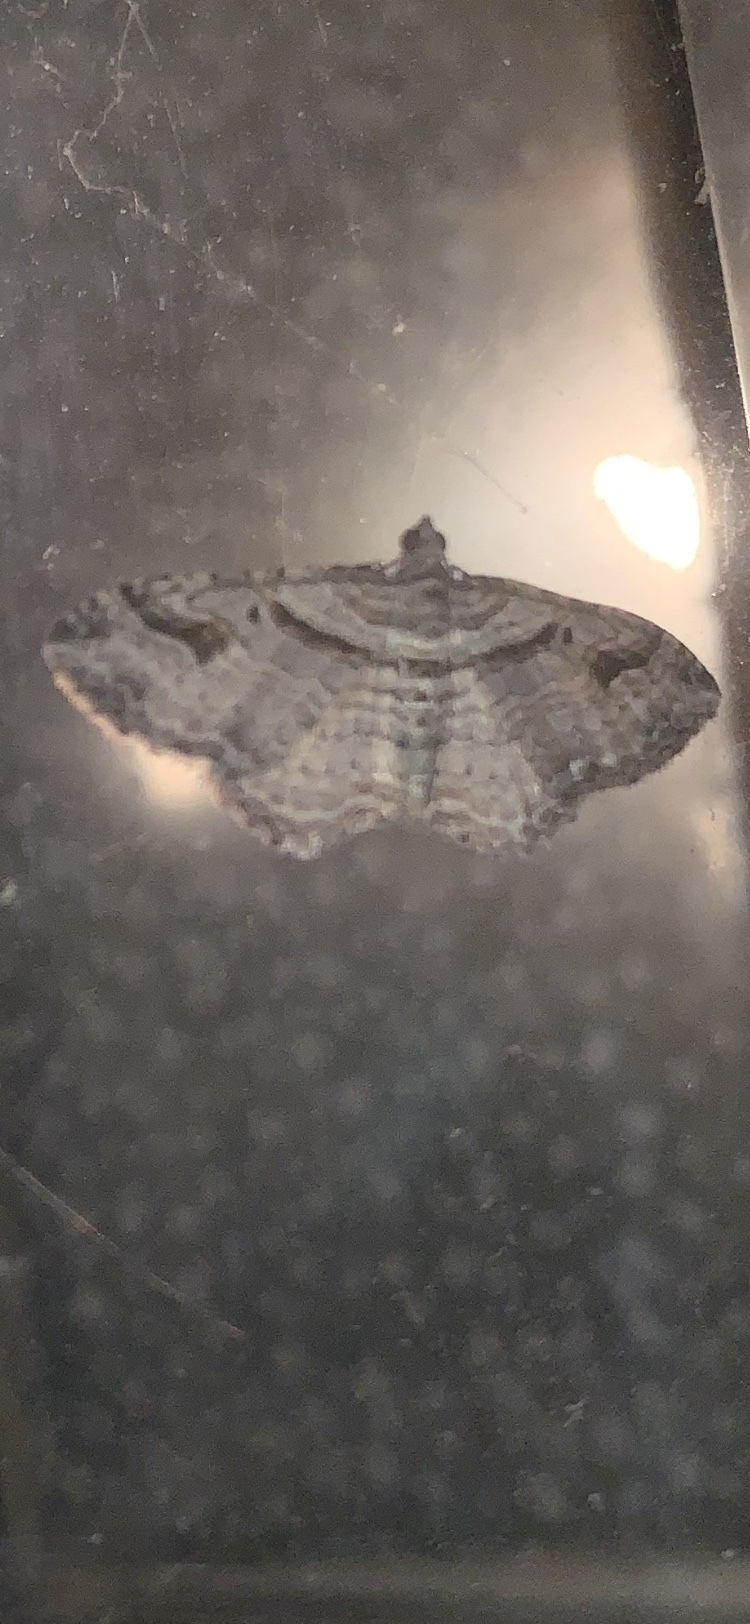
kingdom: Animalia
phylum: Arthropoda
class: Insecta
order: Lepidoptera
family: Geometridae
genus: Costaconvexa
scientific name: Costaconvexa centrostrigaria
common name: Bent-line carpet
